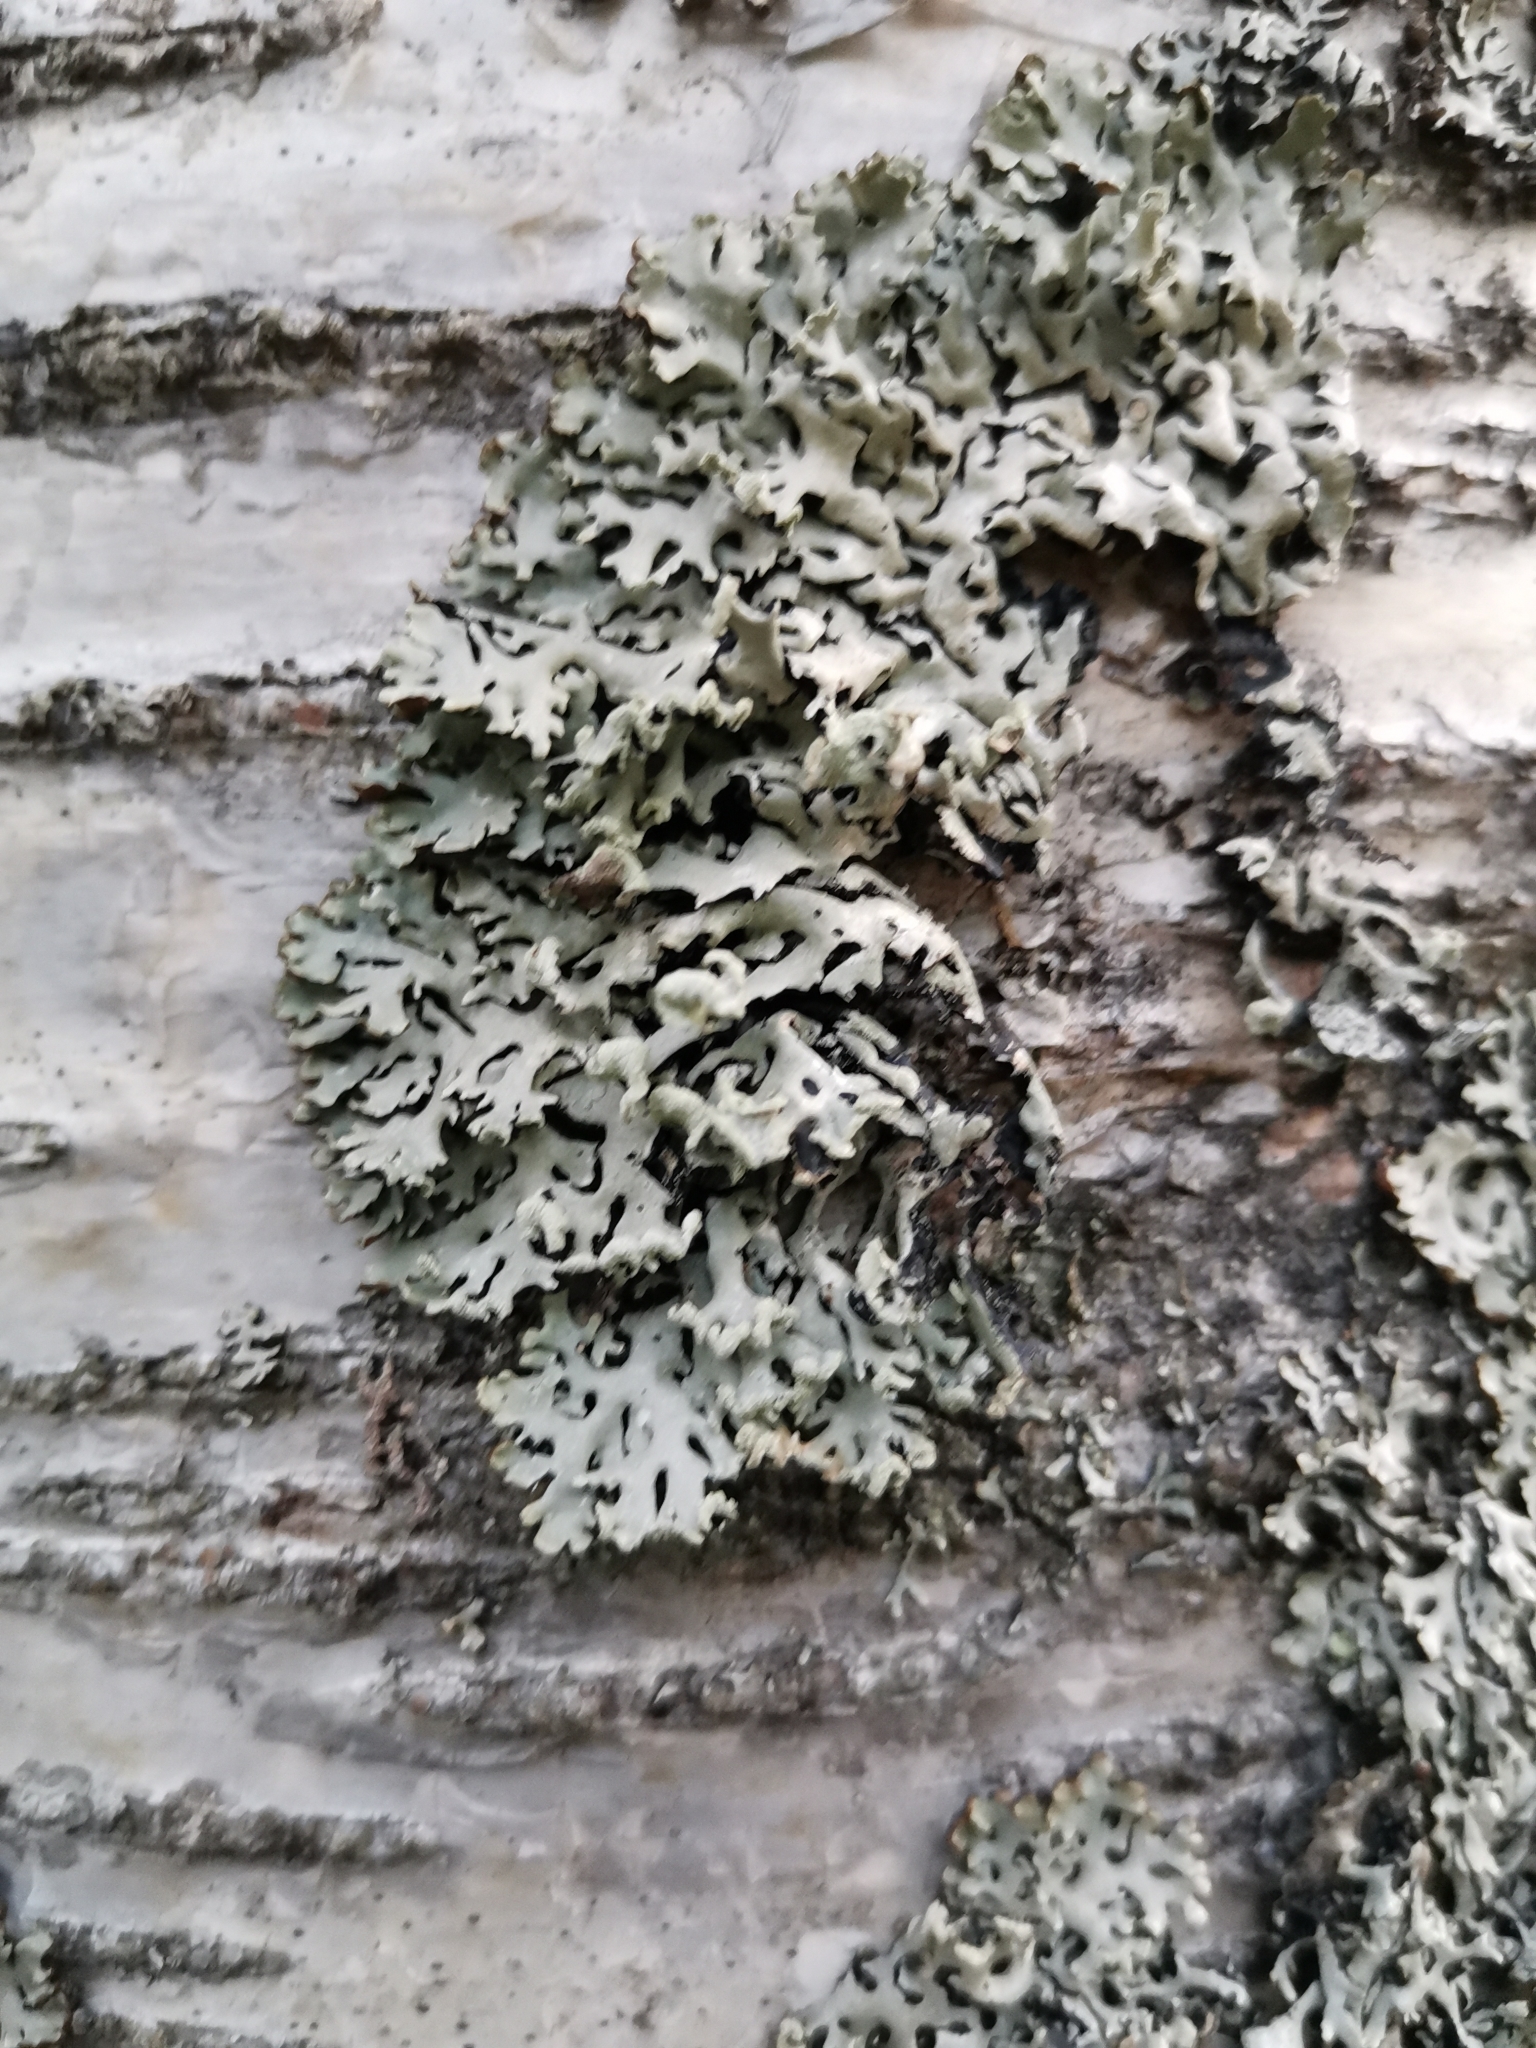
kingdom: Fungi
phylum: Ascomycota
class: Lecanoromycetes
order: Lecanorales
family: Parmeliaceae
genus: Hypogymnia
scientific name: Hypogymnia physodes
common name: Dark crottle
